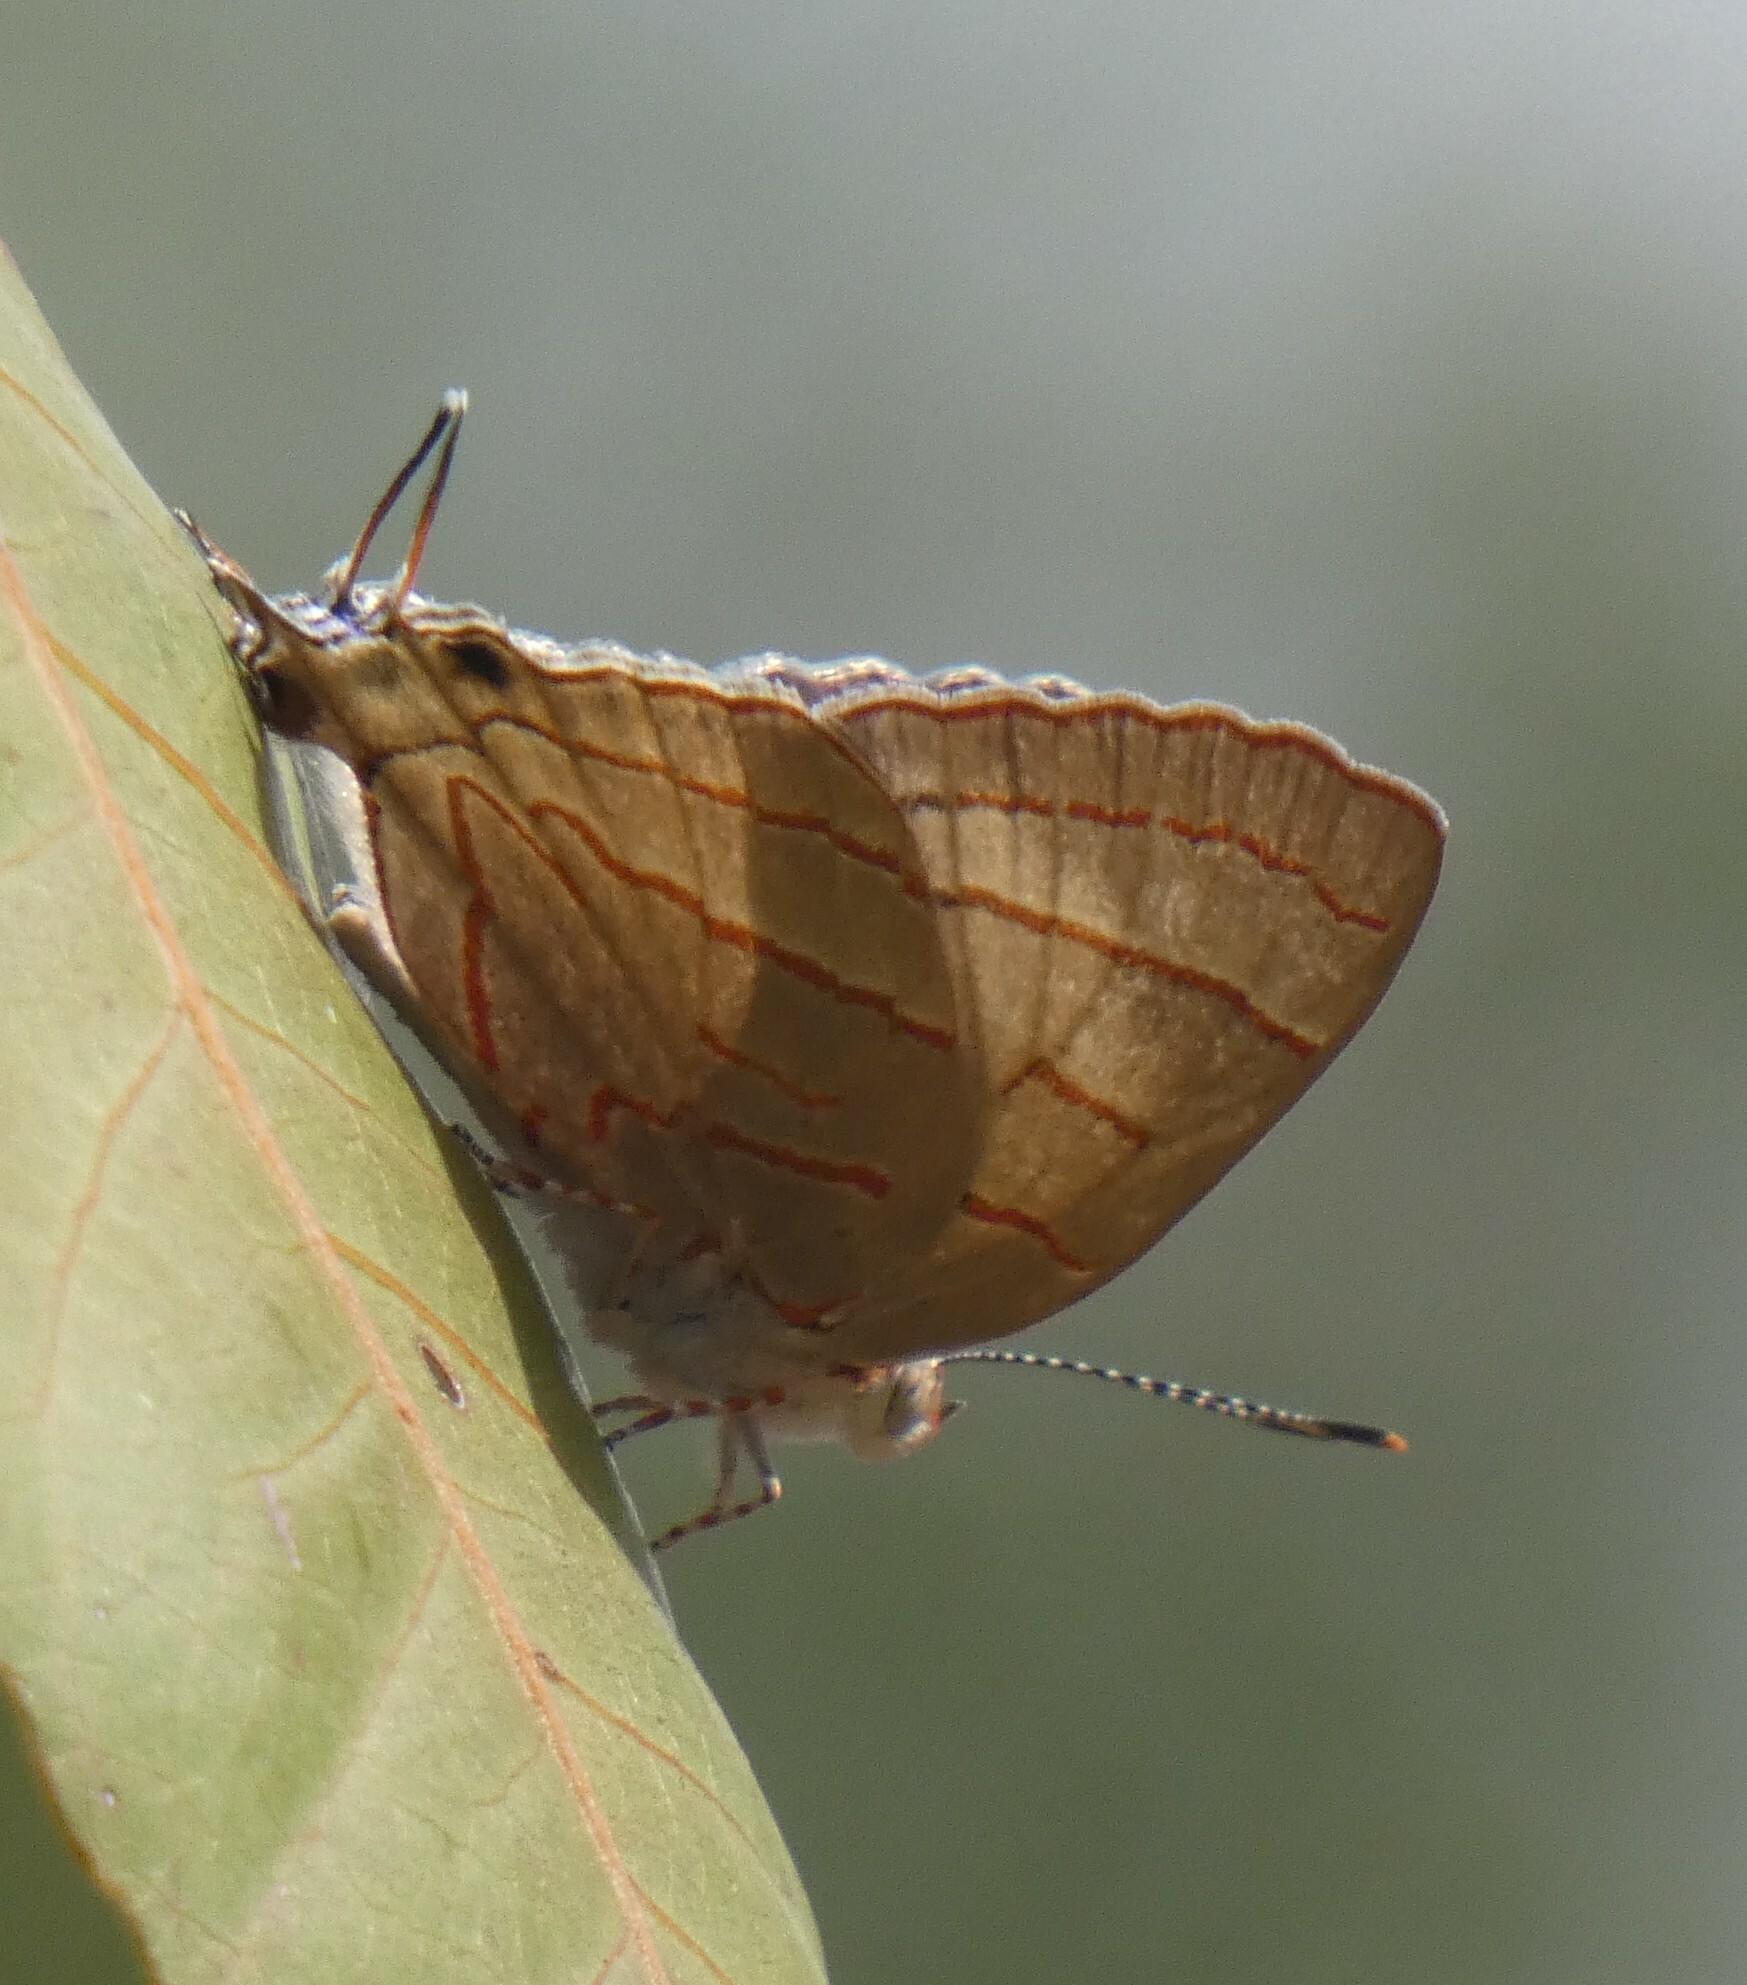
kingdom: Animalia
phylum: Arthropoda
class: Insecta
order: Lepidoptera
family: Lycaenidae
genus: Hemiolaus
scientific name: Hemiolaus caeculus
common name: Azure hairstreak
